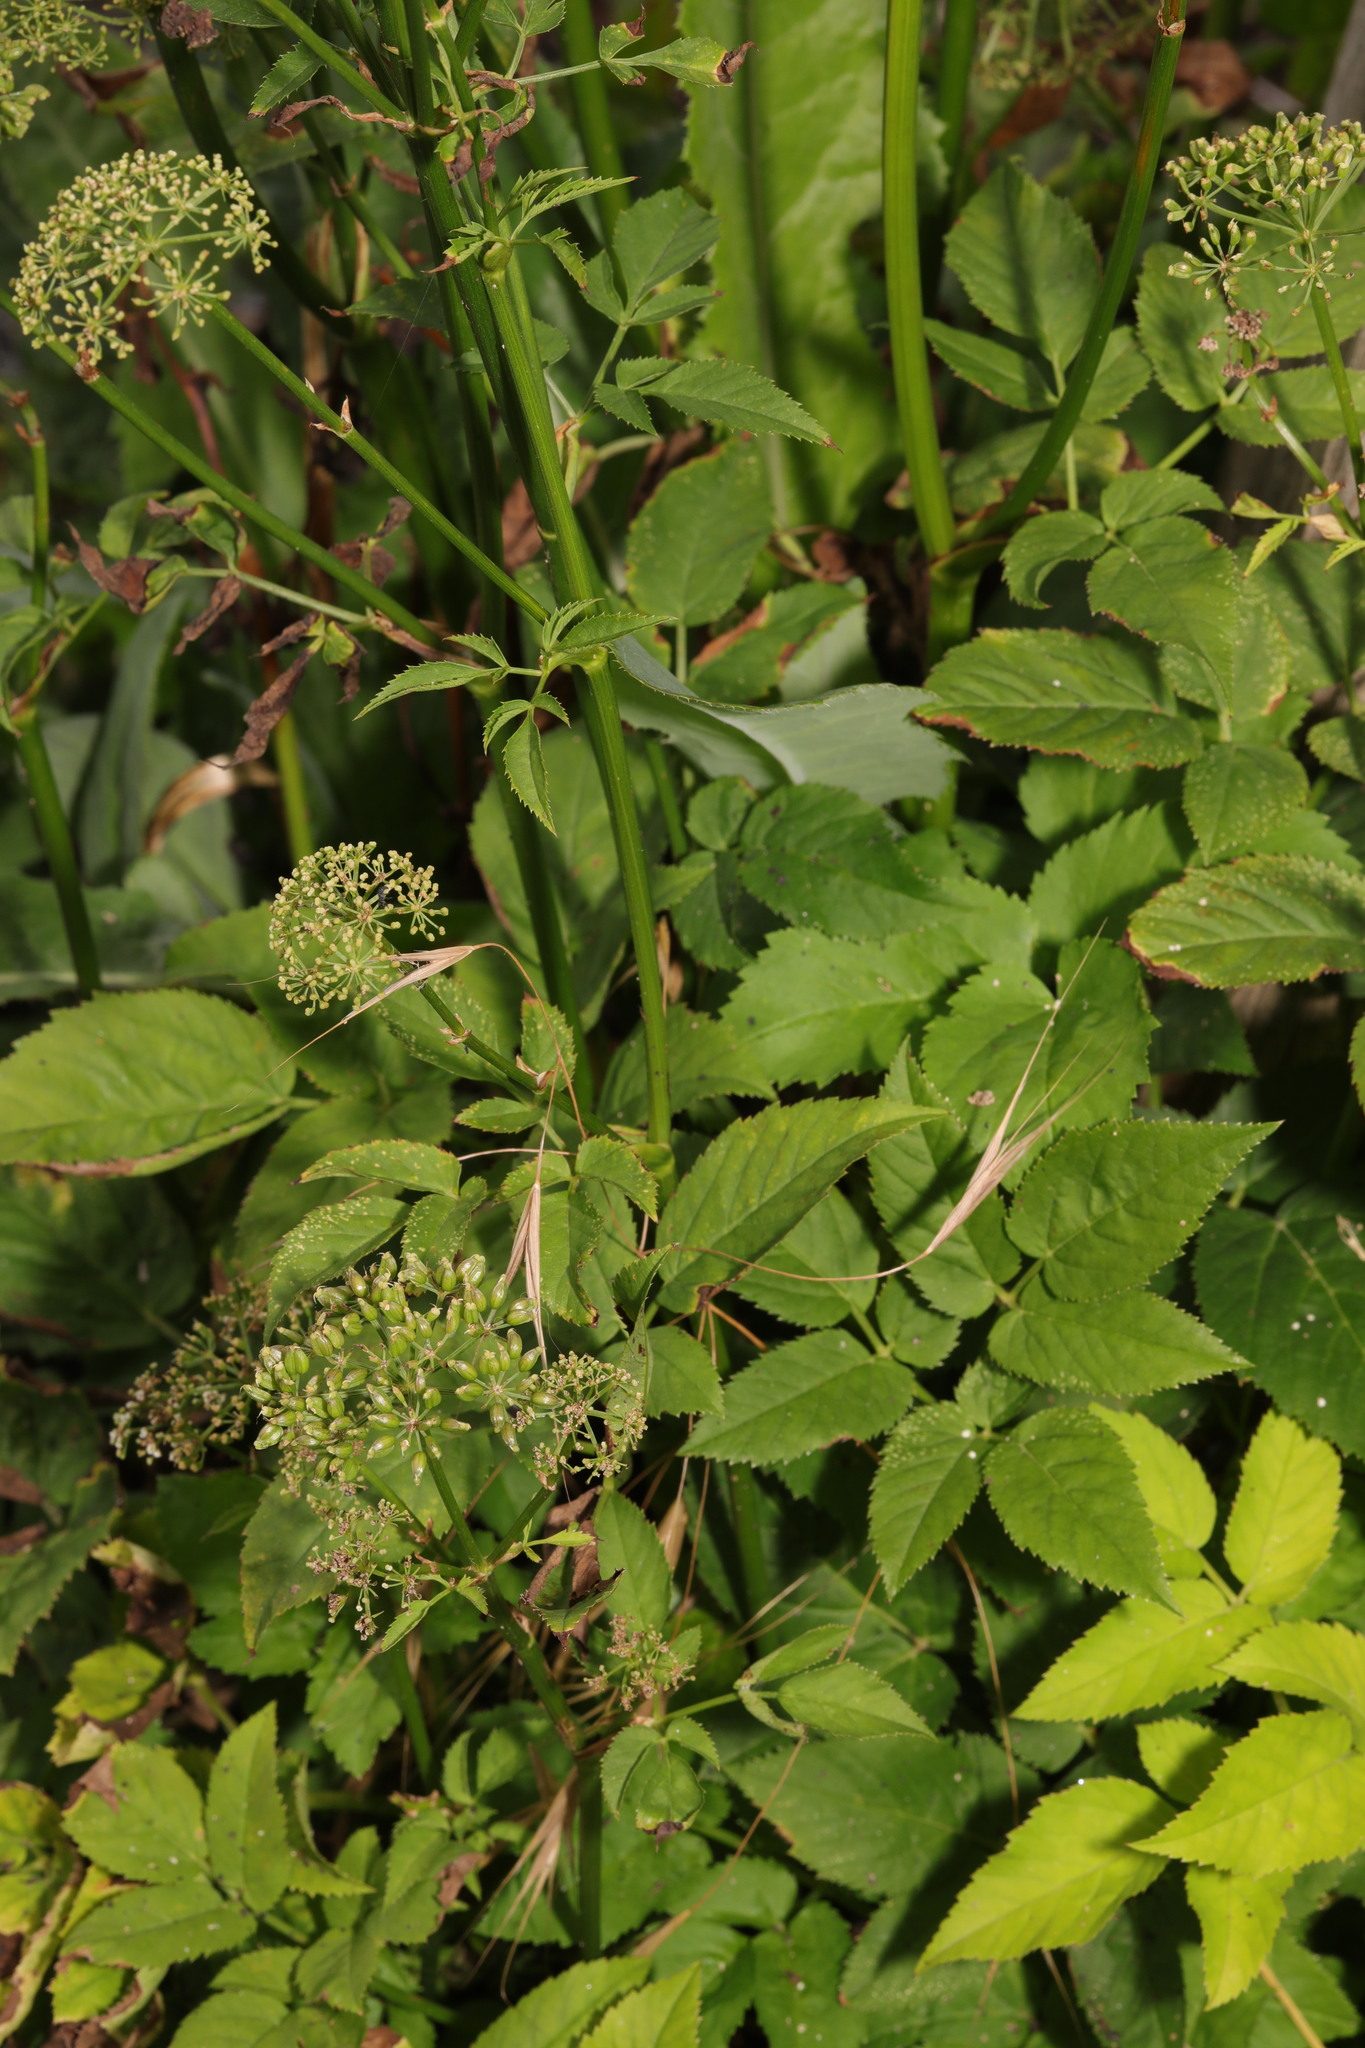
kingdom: Plantae
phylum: Tracheophyta
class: Magnoliopsida
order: Apiales
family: Apiaceae
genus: Aegopodium
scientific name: Aegopodium podagraria
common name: Ground-elder
